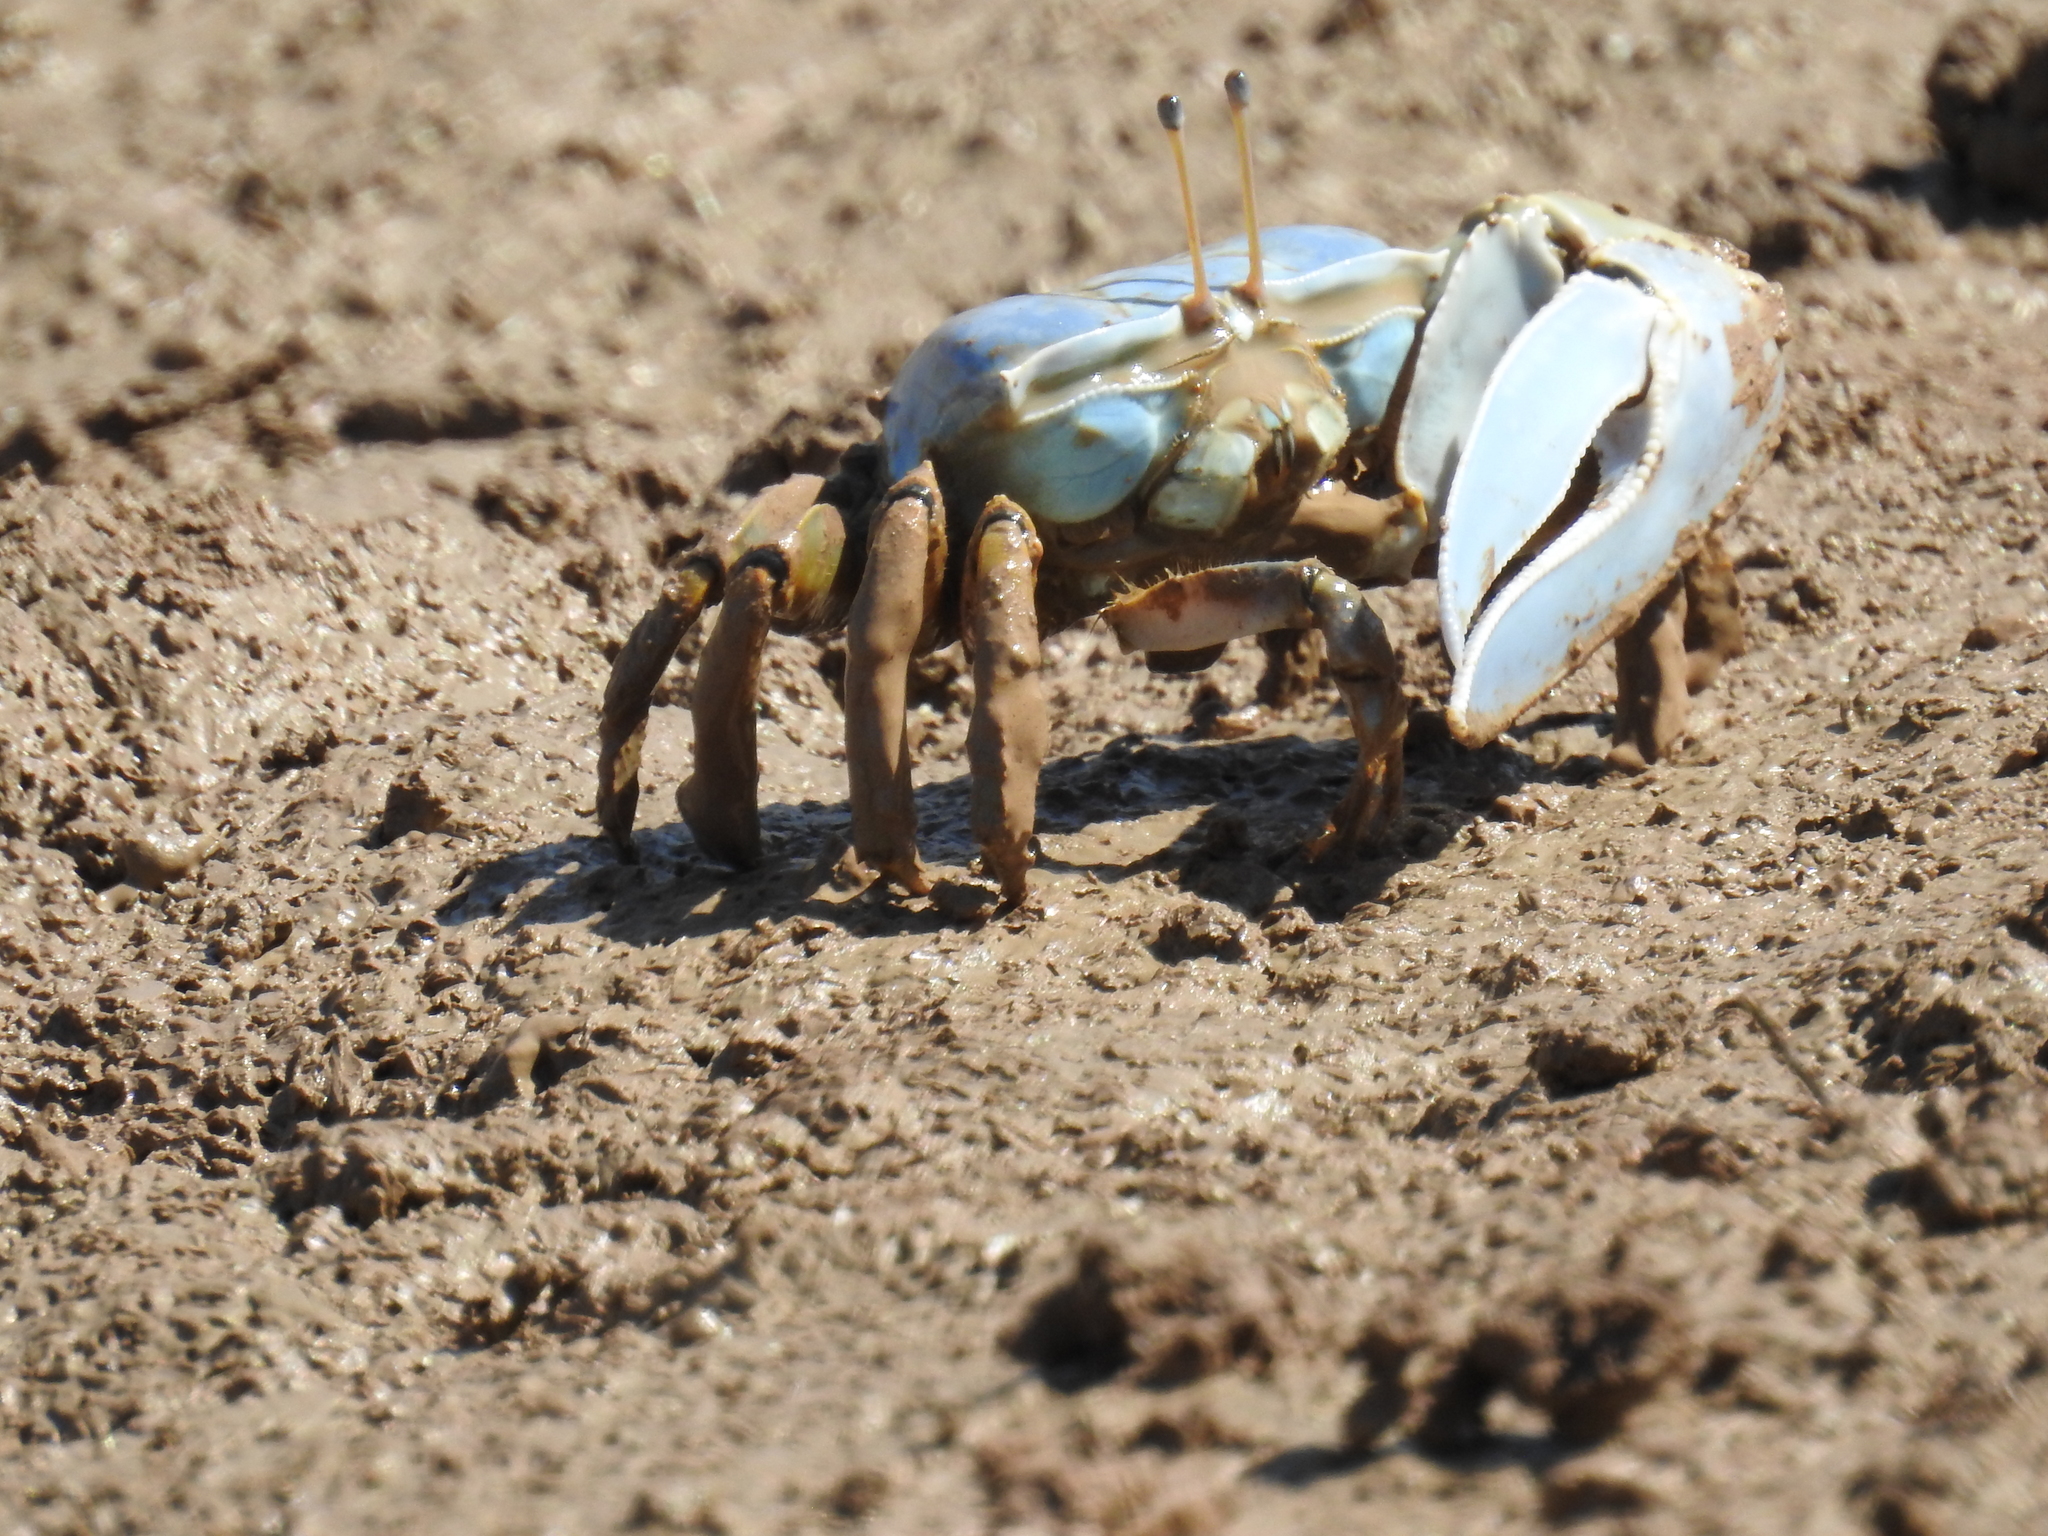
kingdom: Animalia
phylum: Arthropoda
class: Malacostraca
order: Decapoda
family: Ocypodidae
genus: Uca
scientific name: Uca monilifera
